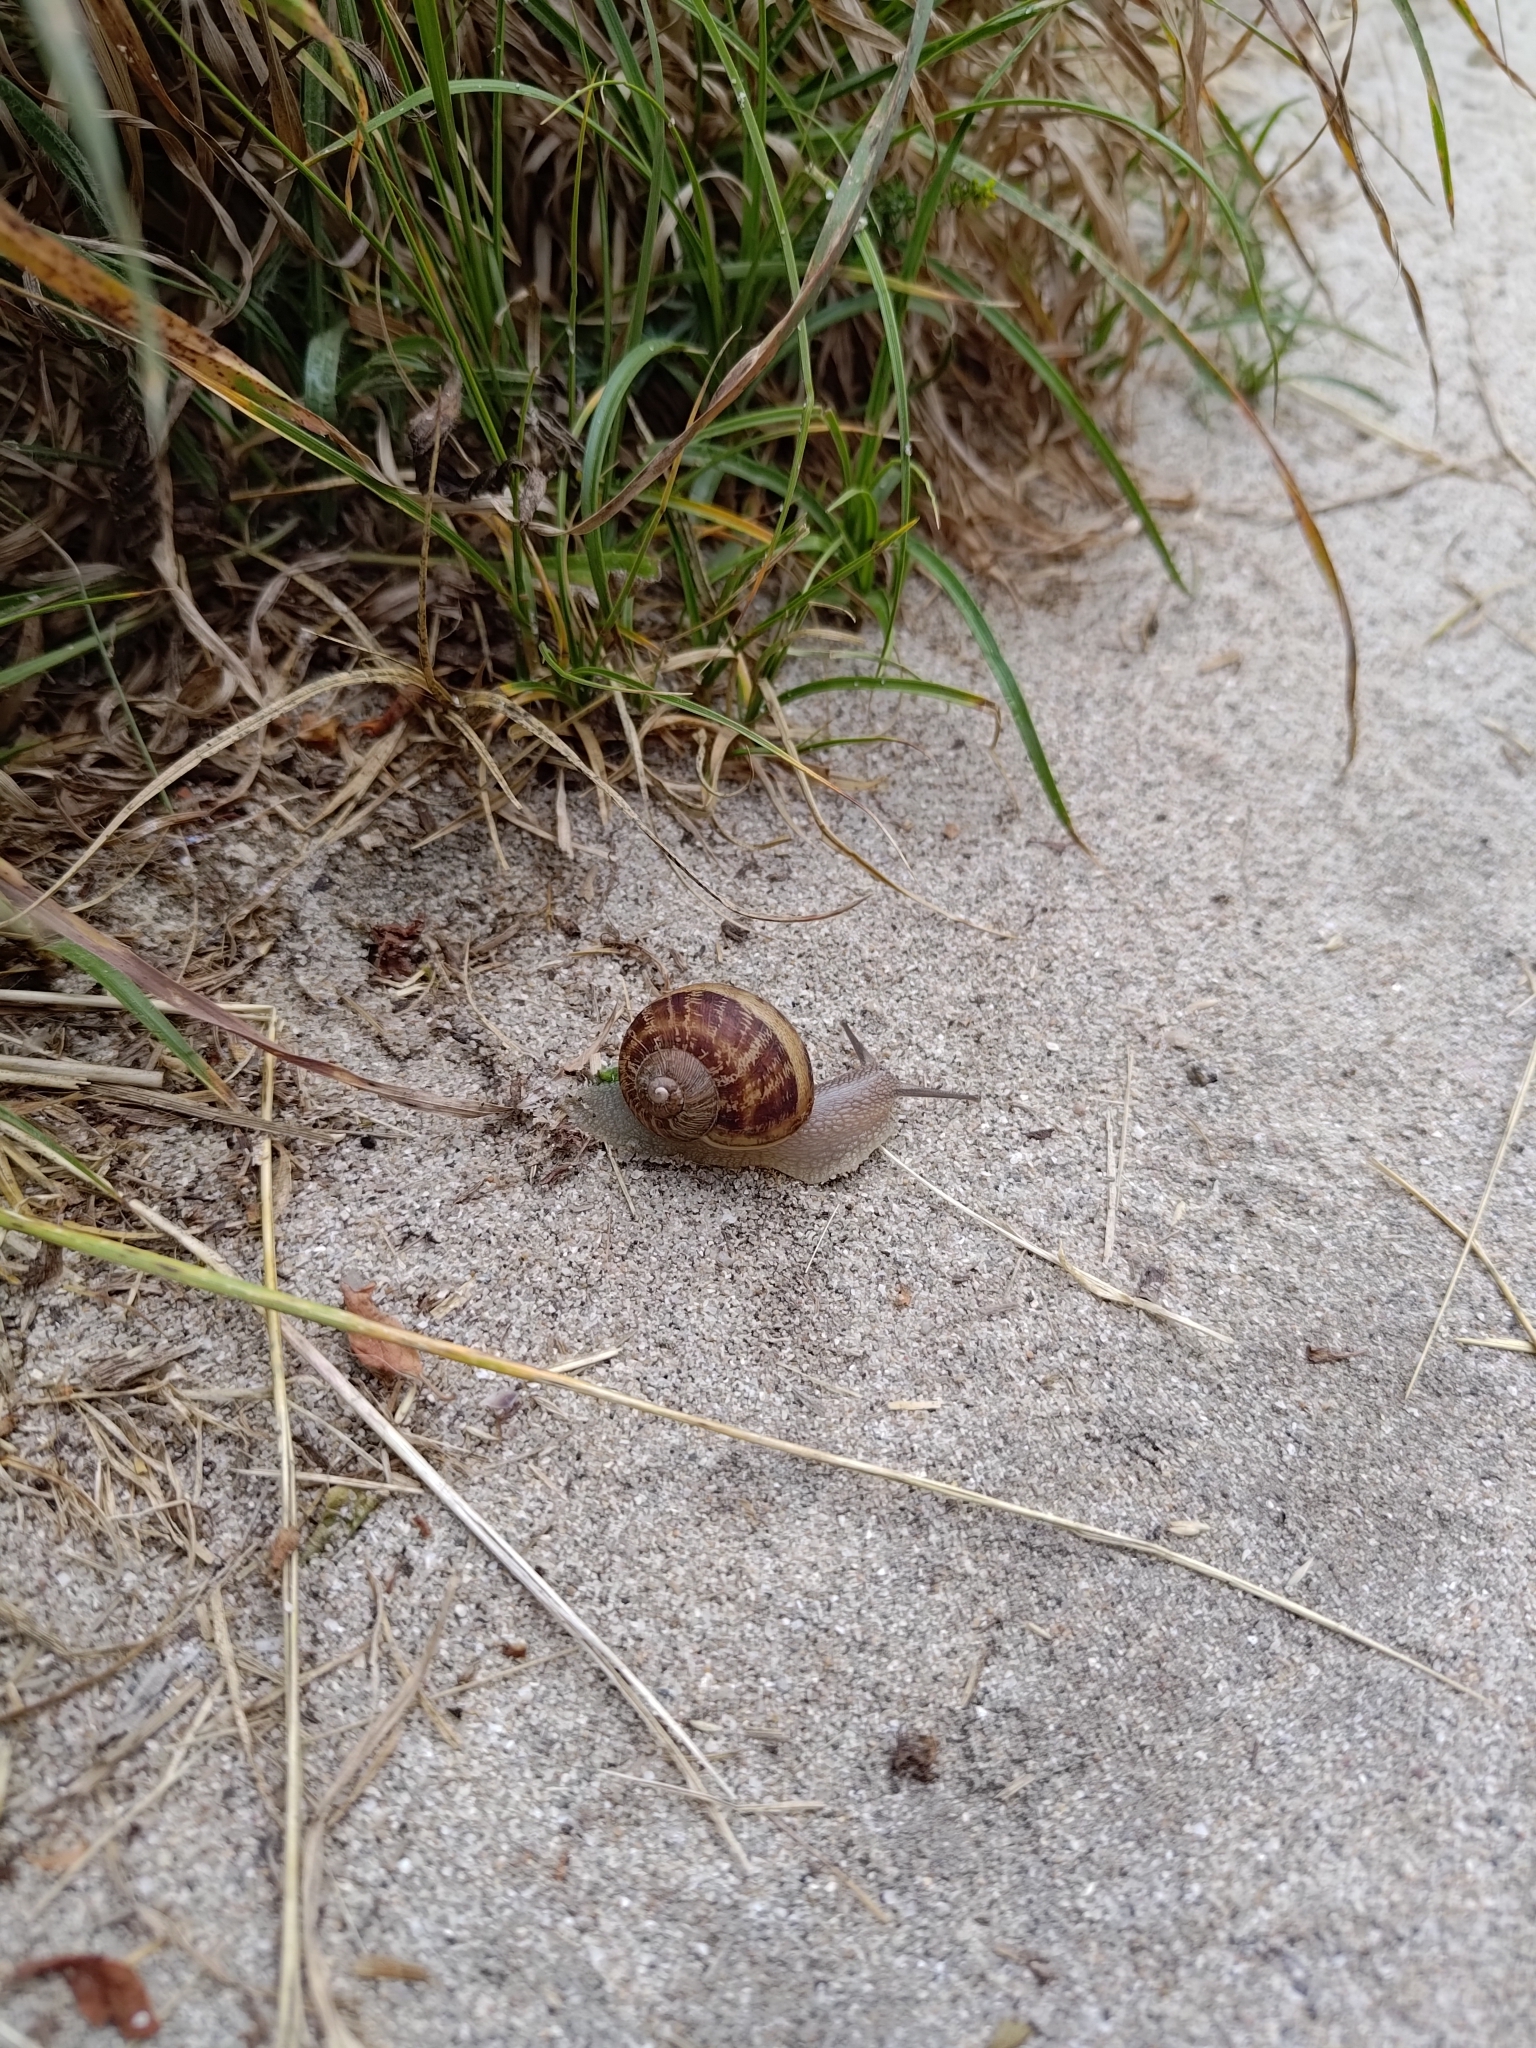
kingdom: Animalia
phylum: Mollusca
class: Gastropoda
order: Stylommatophora
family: Helicidae
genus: Cornu
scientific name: Cornu aspersum
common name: Brown garden snail
